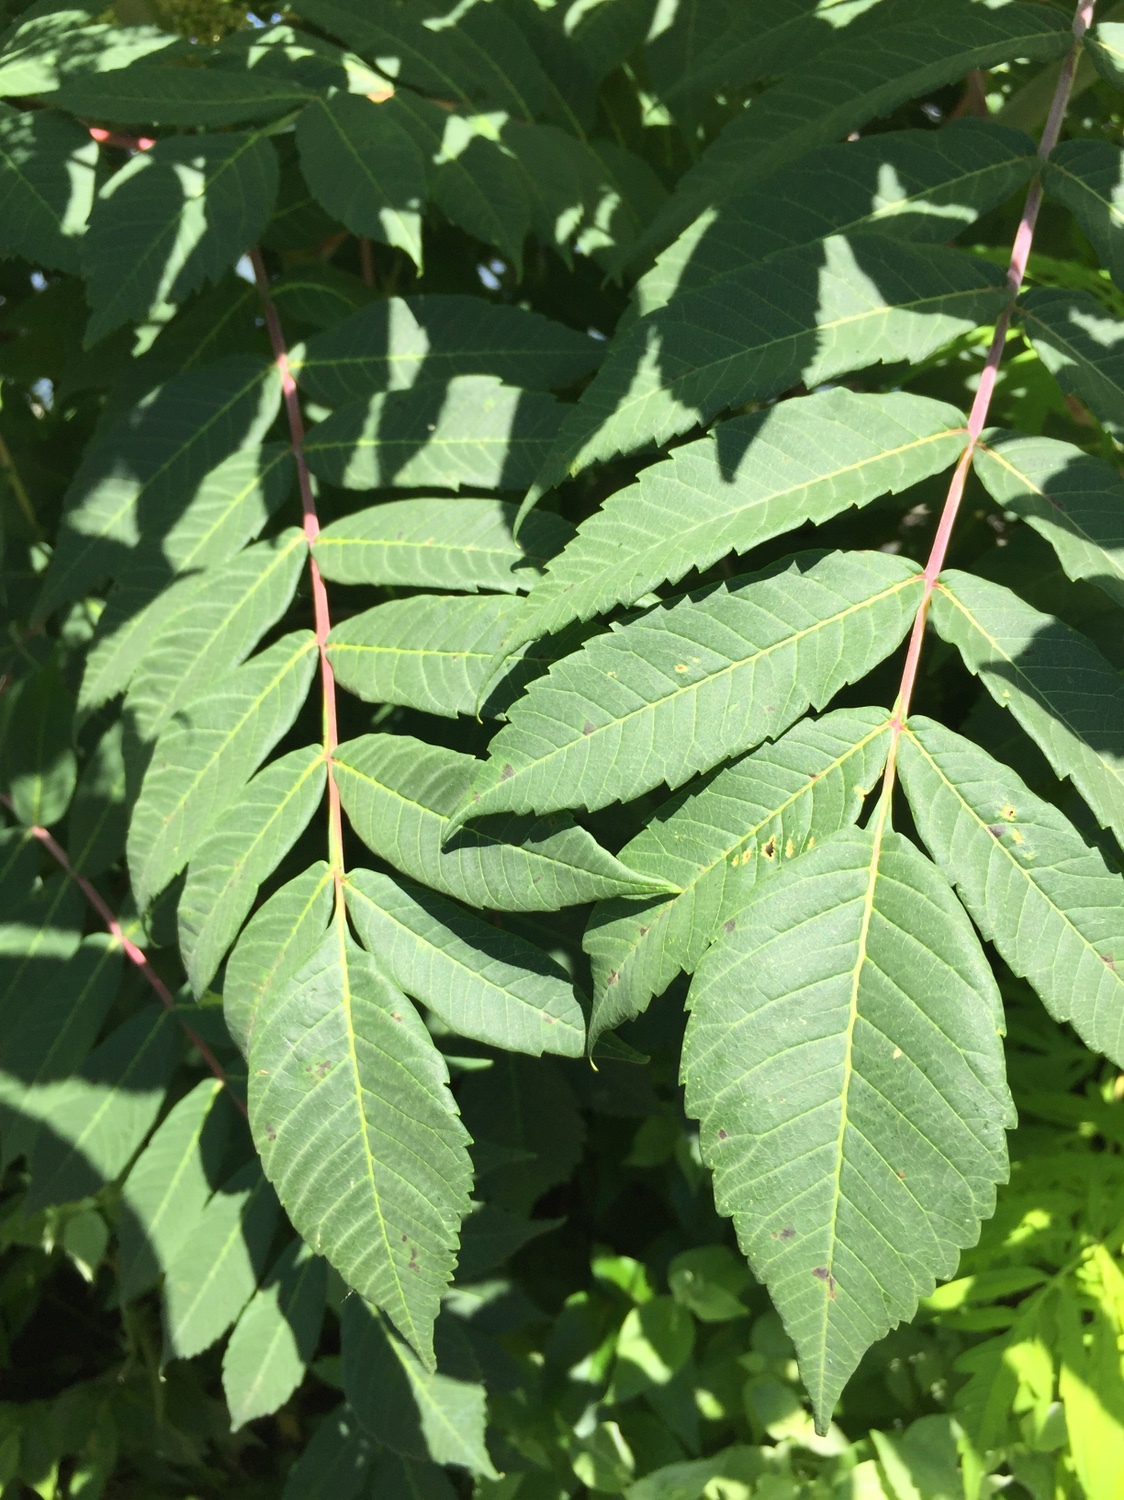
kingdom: Plantae
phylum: Tracheophyta
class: Magnoliopsida
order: Sapindales
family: Anacardiaceae
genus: Rhus
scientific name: Rhus glabra
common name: Scarlet sumac
